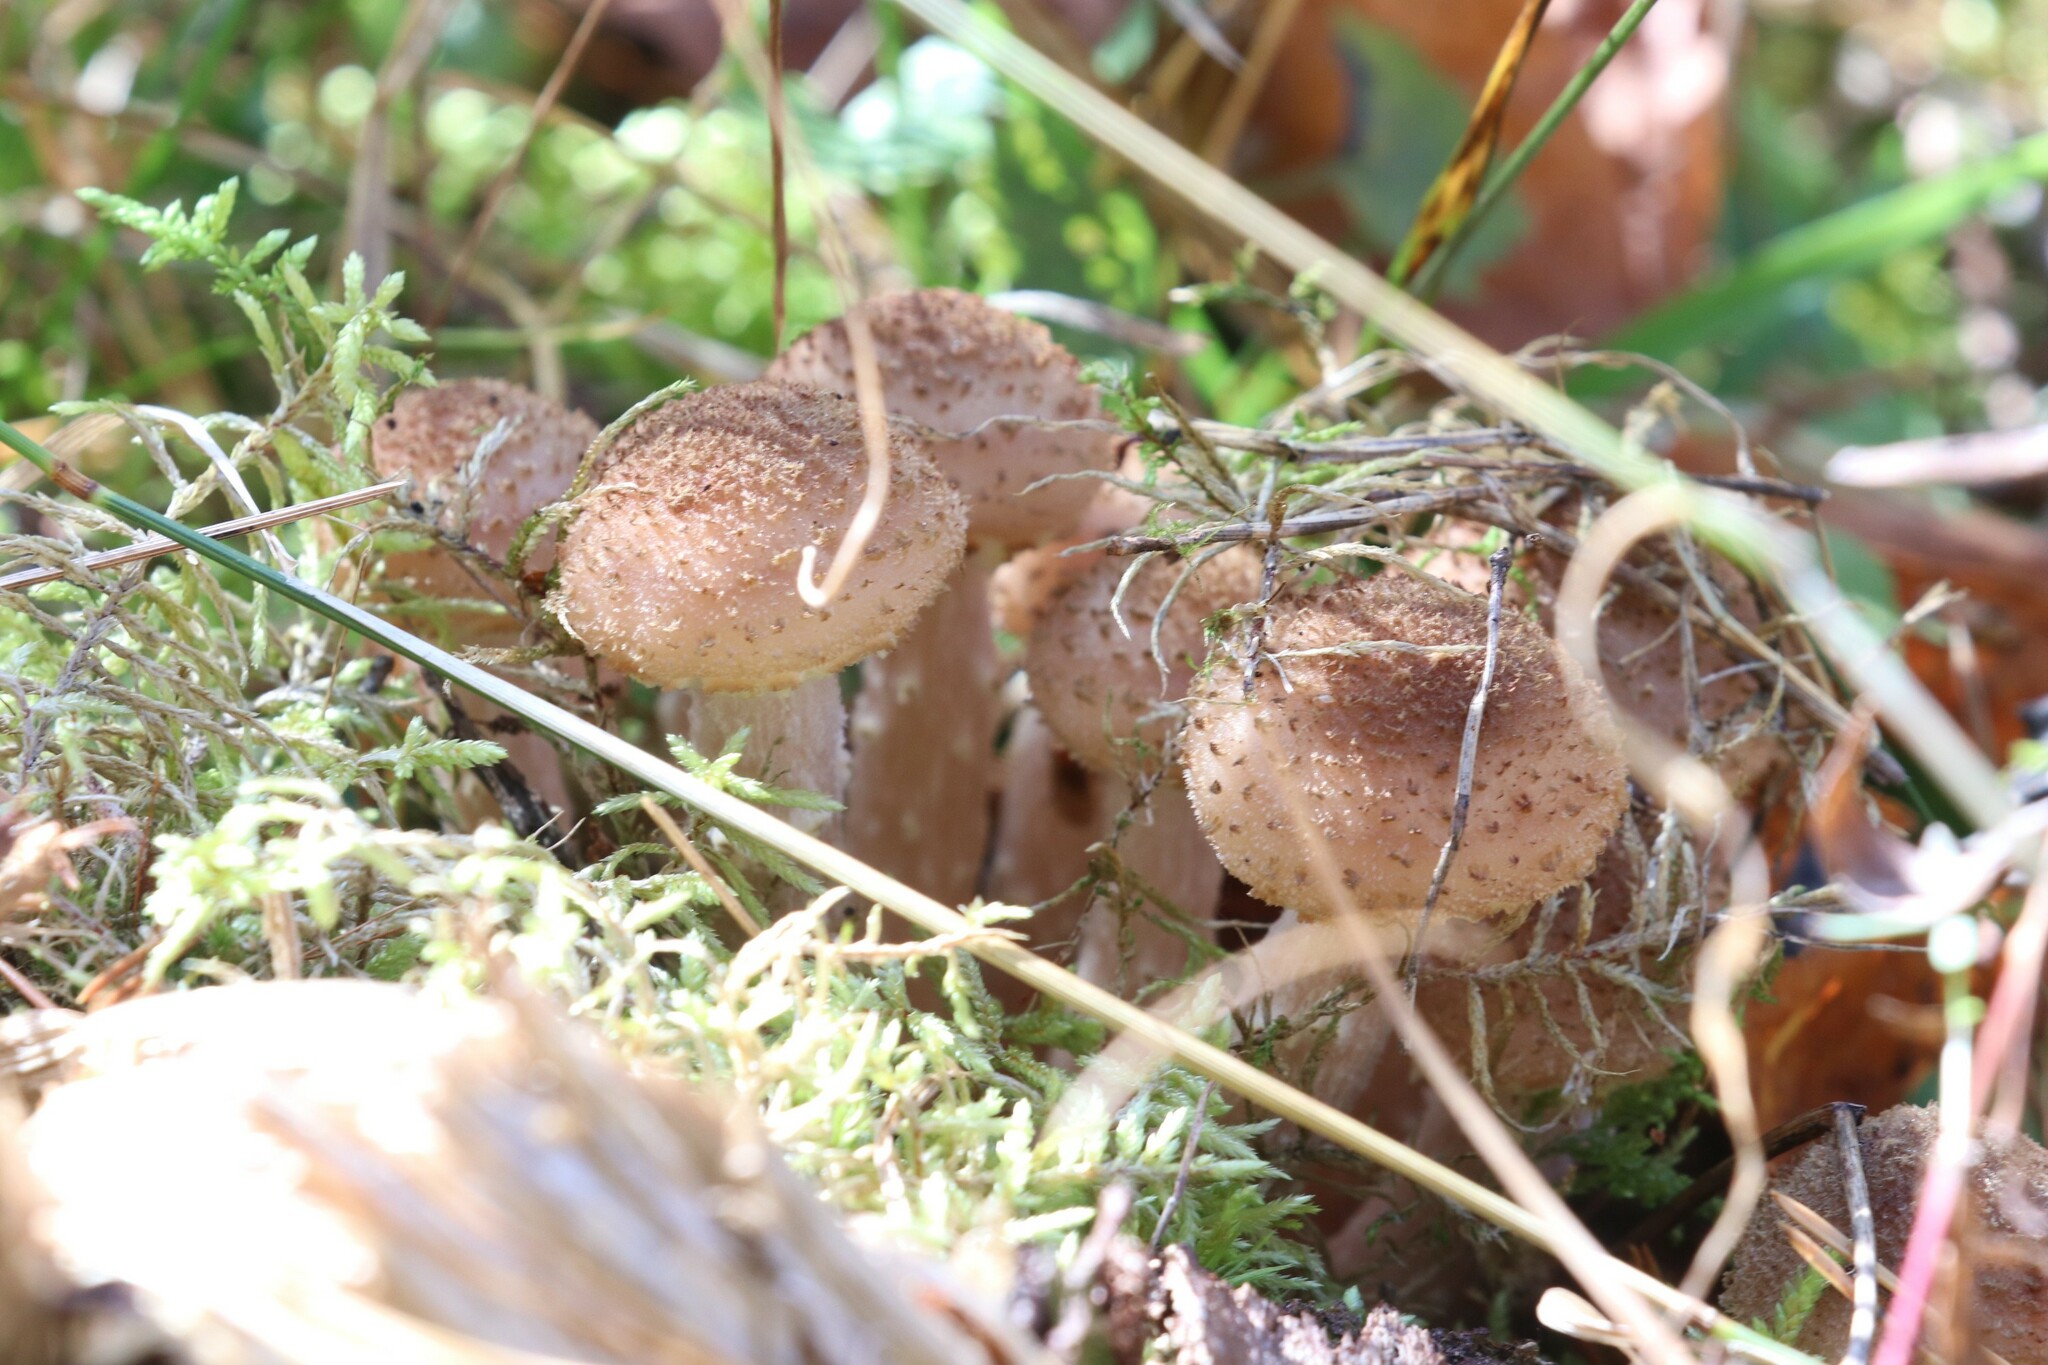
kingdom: Fungi
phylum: Basidiomycota
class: Agaricomycetes
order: Agaricales
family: Physalacriaceae
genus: Armillaria
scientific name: Armillaria borealis
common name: Northern honey fungus
